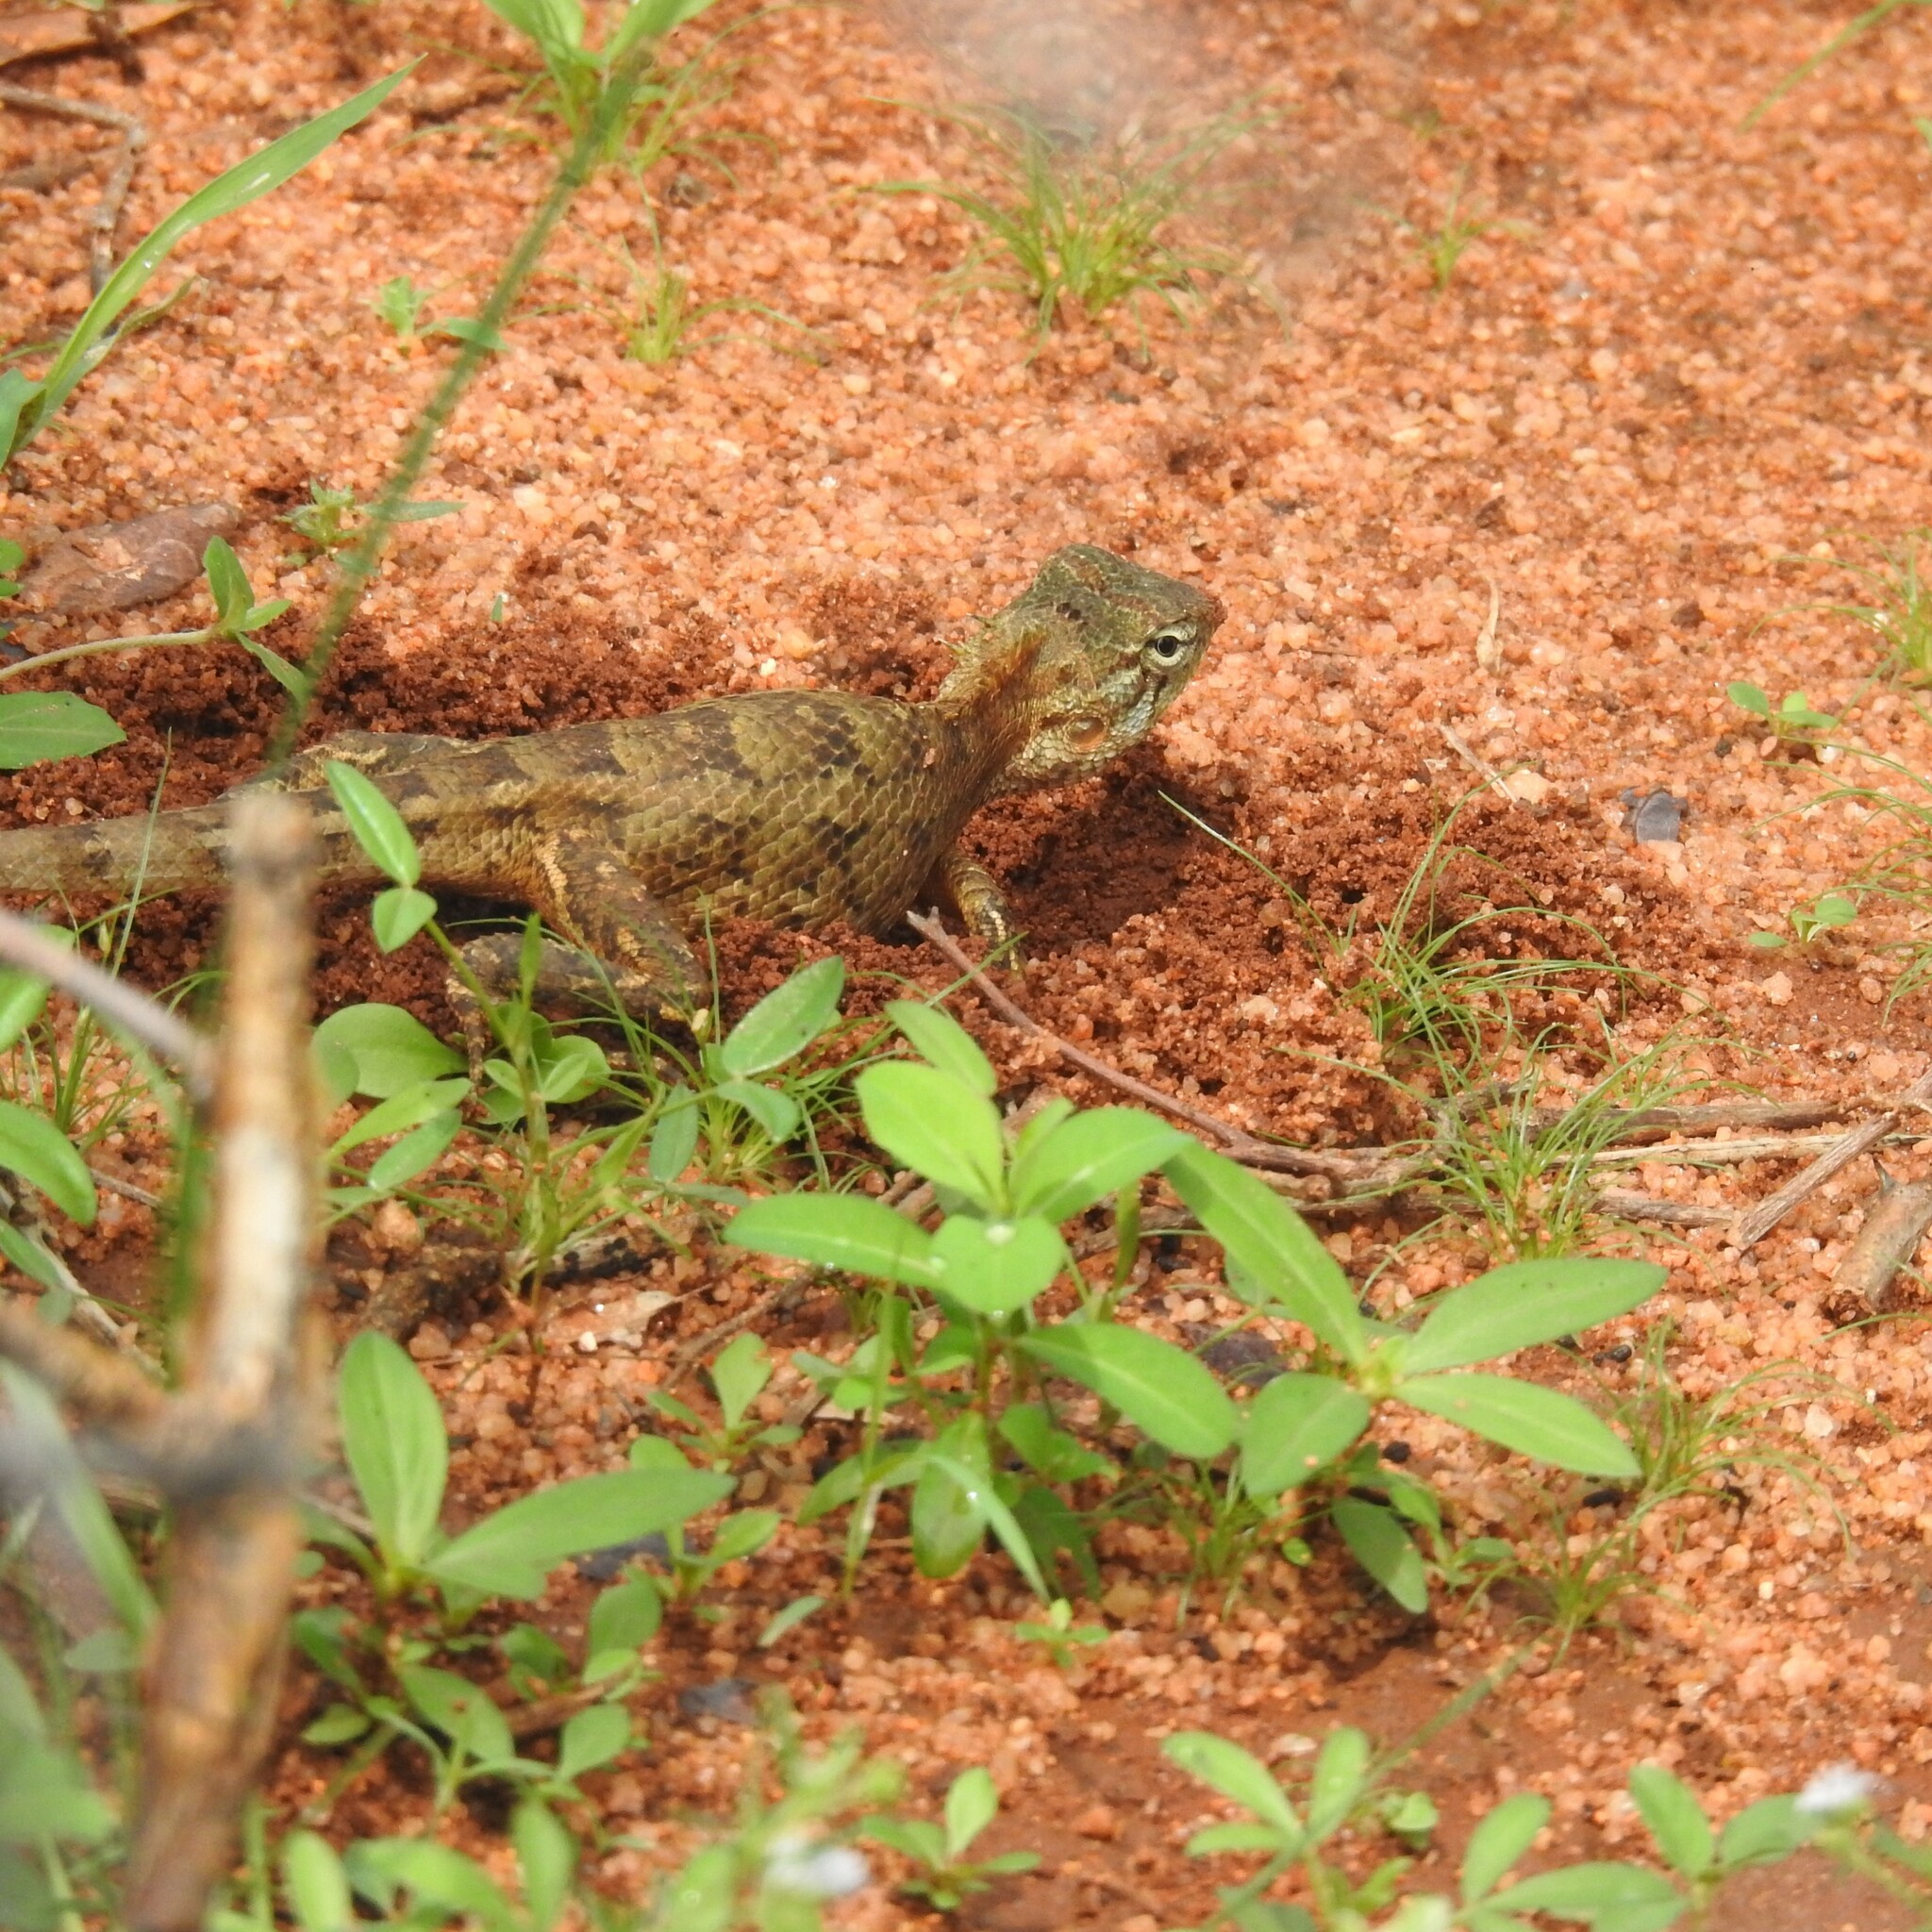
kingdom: Animalia
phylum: Chordata
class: Squamata
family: Agamidae
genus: Calotes
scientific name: Calotes versicolor
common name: Oriental garden lizard
